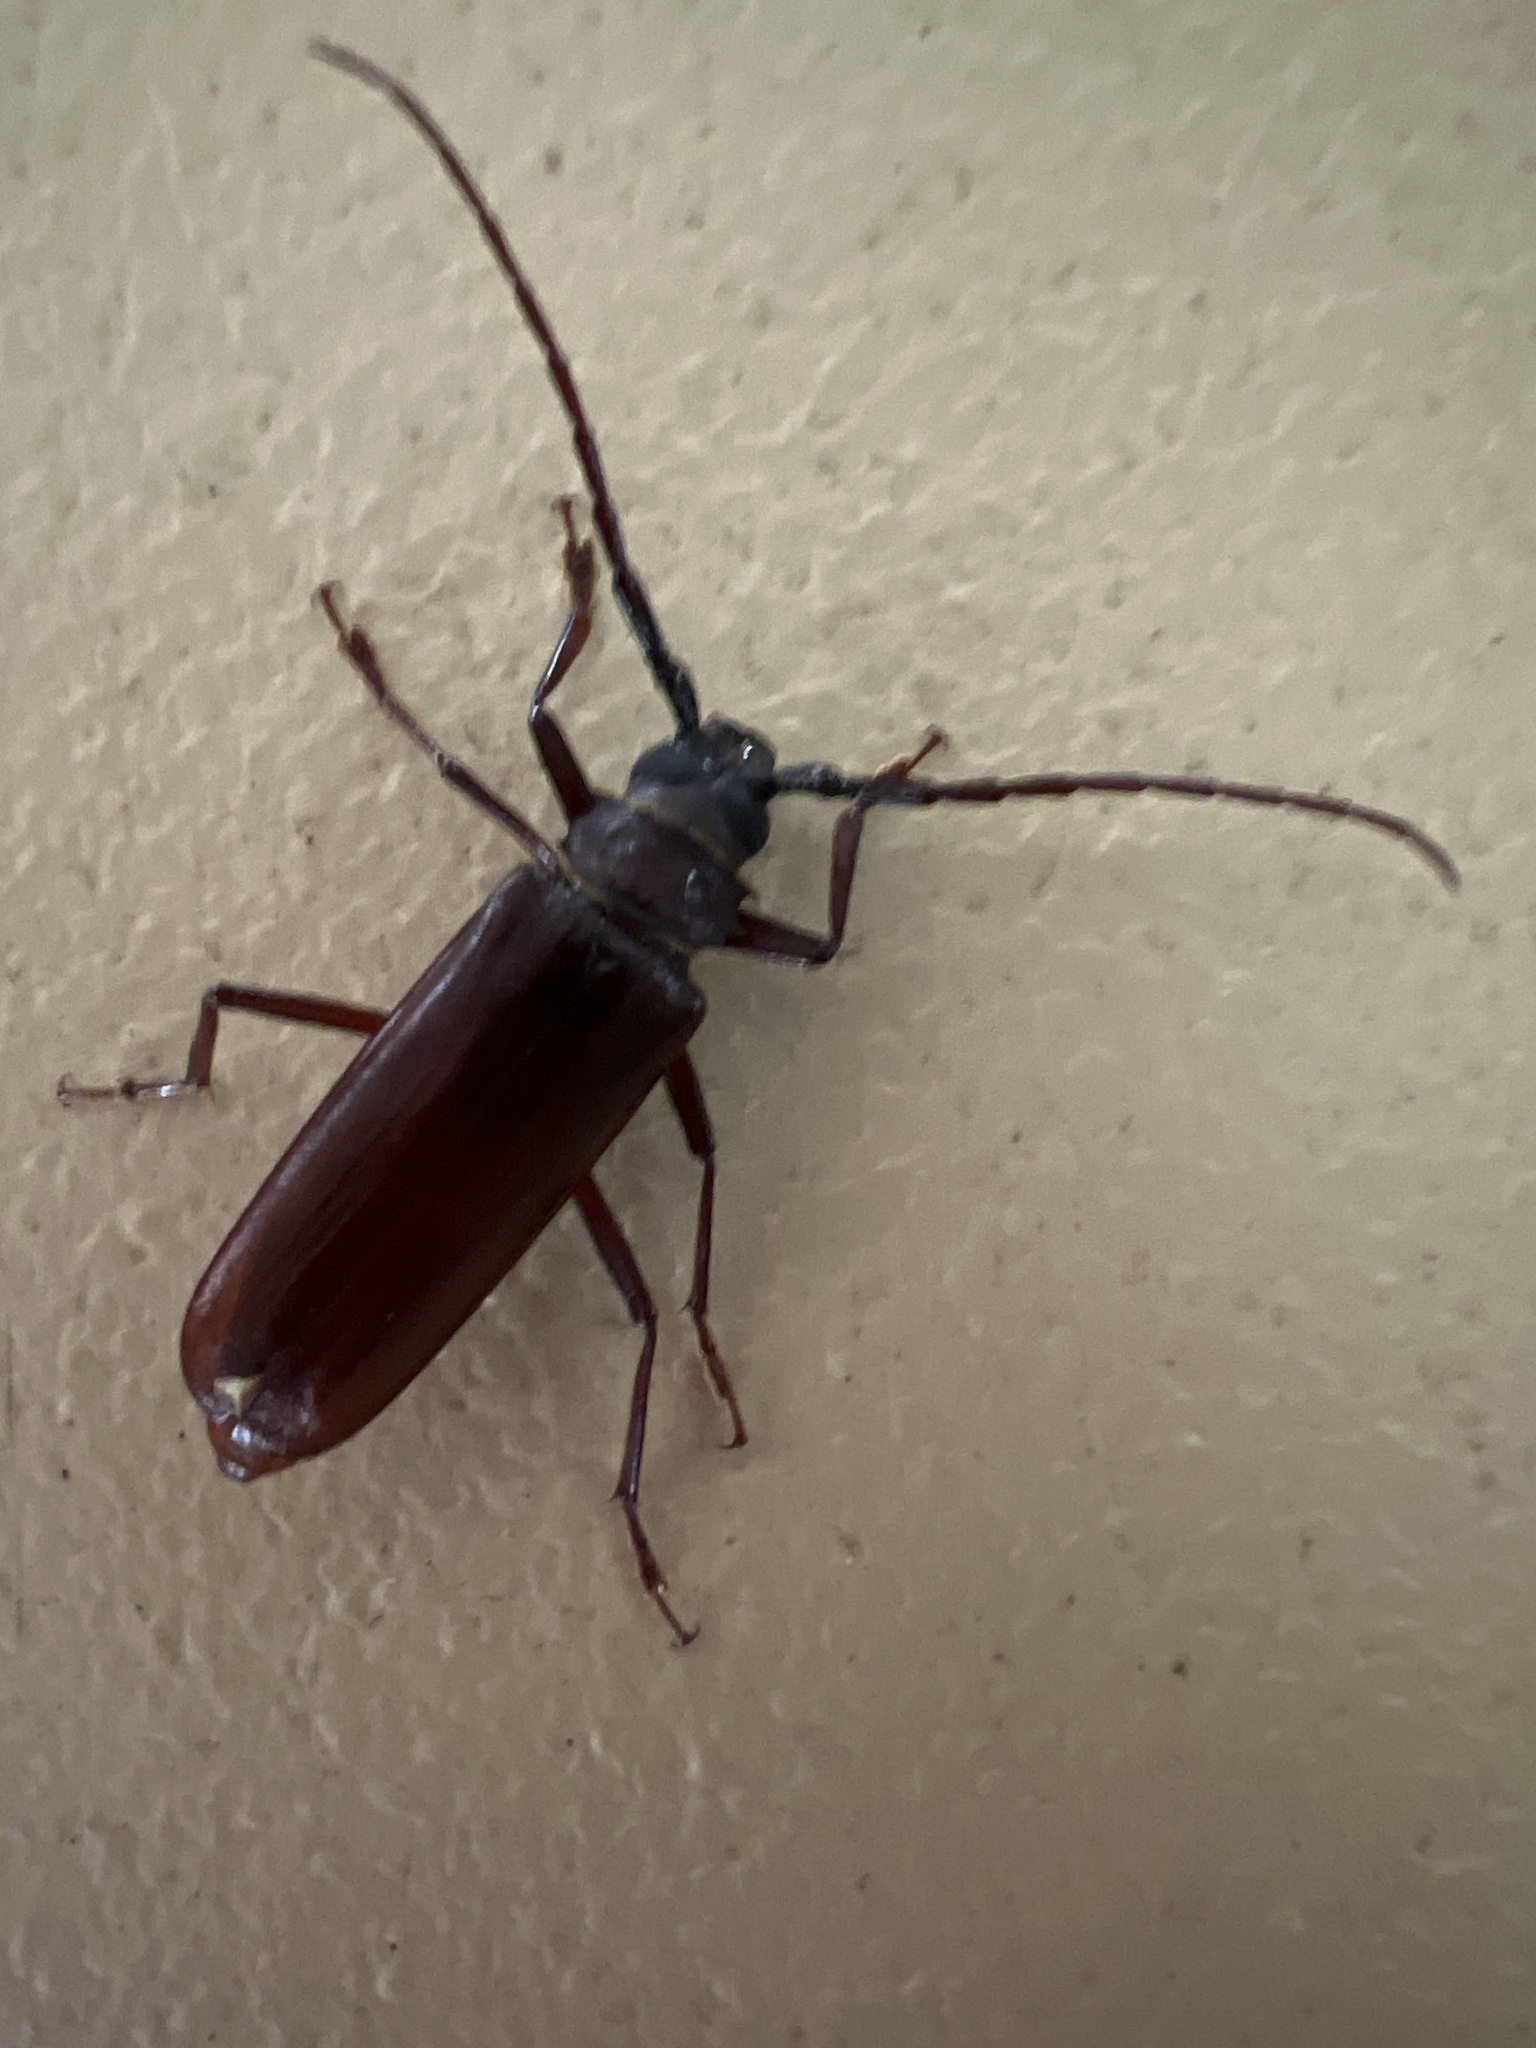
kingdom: Animalia
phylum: Arthropoda
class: Insecta
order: Coleoptera
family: Cerambycidae
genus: Orthosoma
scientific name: Orthosoma brunneum
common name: Brown prionid beetle
